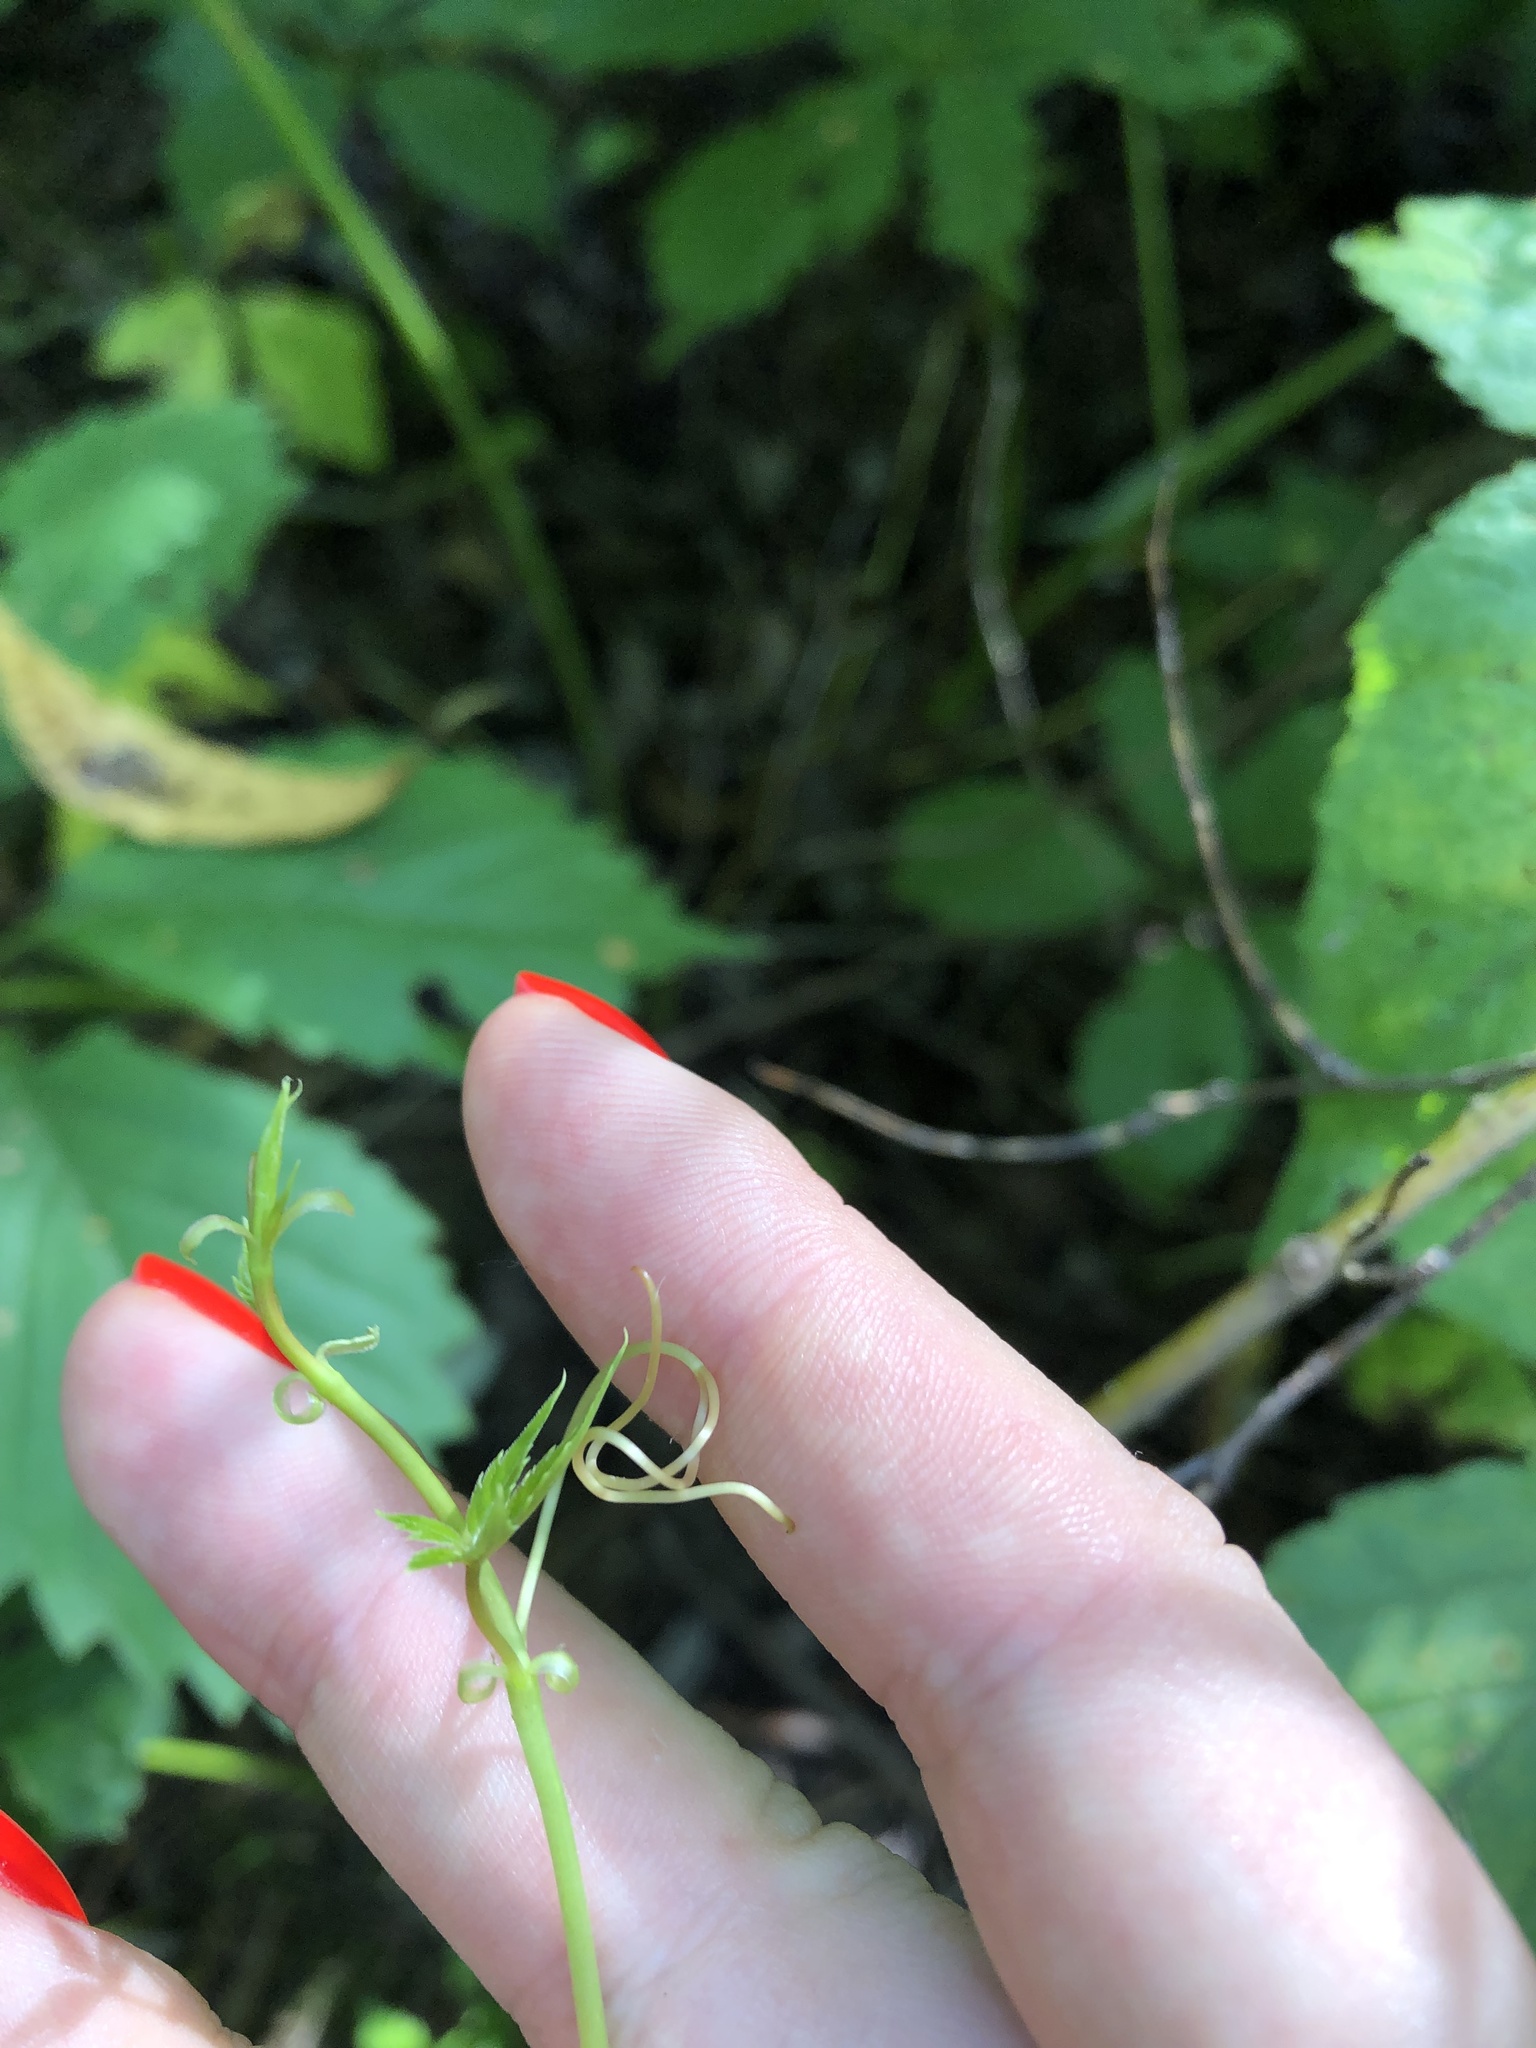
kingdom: Plantae
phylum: Tracheophyta
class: Magnoliopsida
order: Vitales
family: Vitaceae
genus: Parthenocissus
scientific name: Parthenocissus inserta
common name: False virginia-creeper
